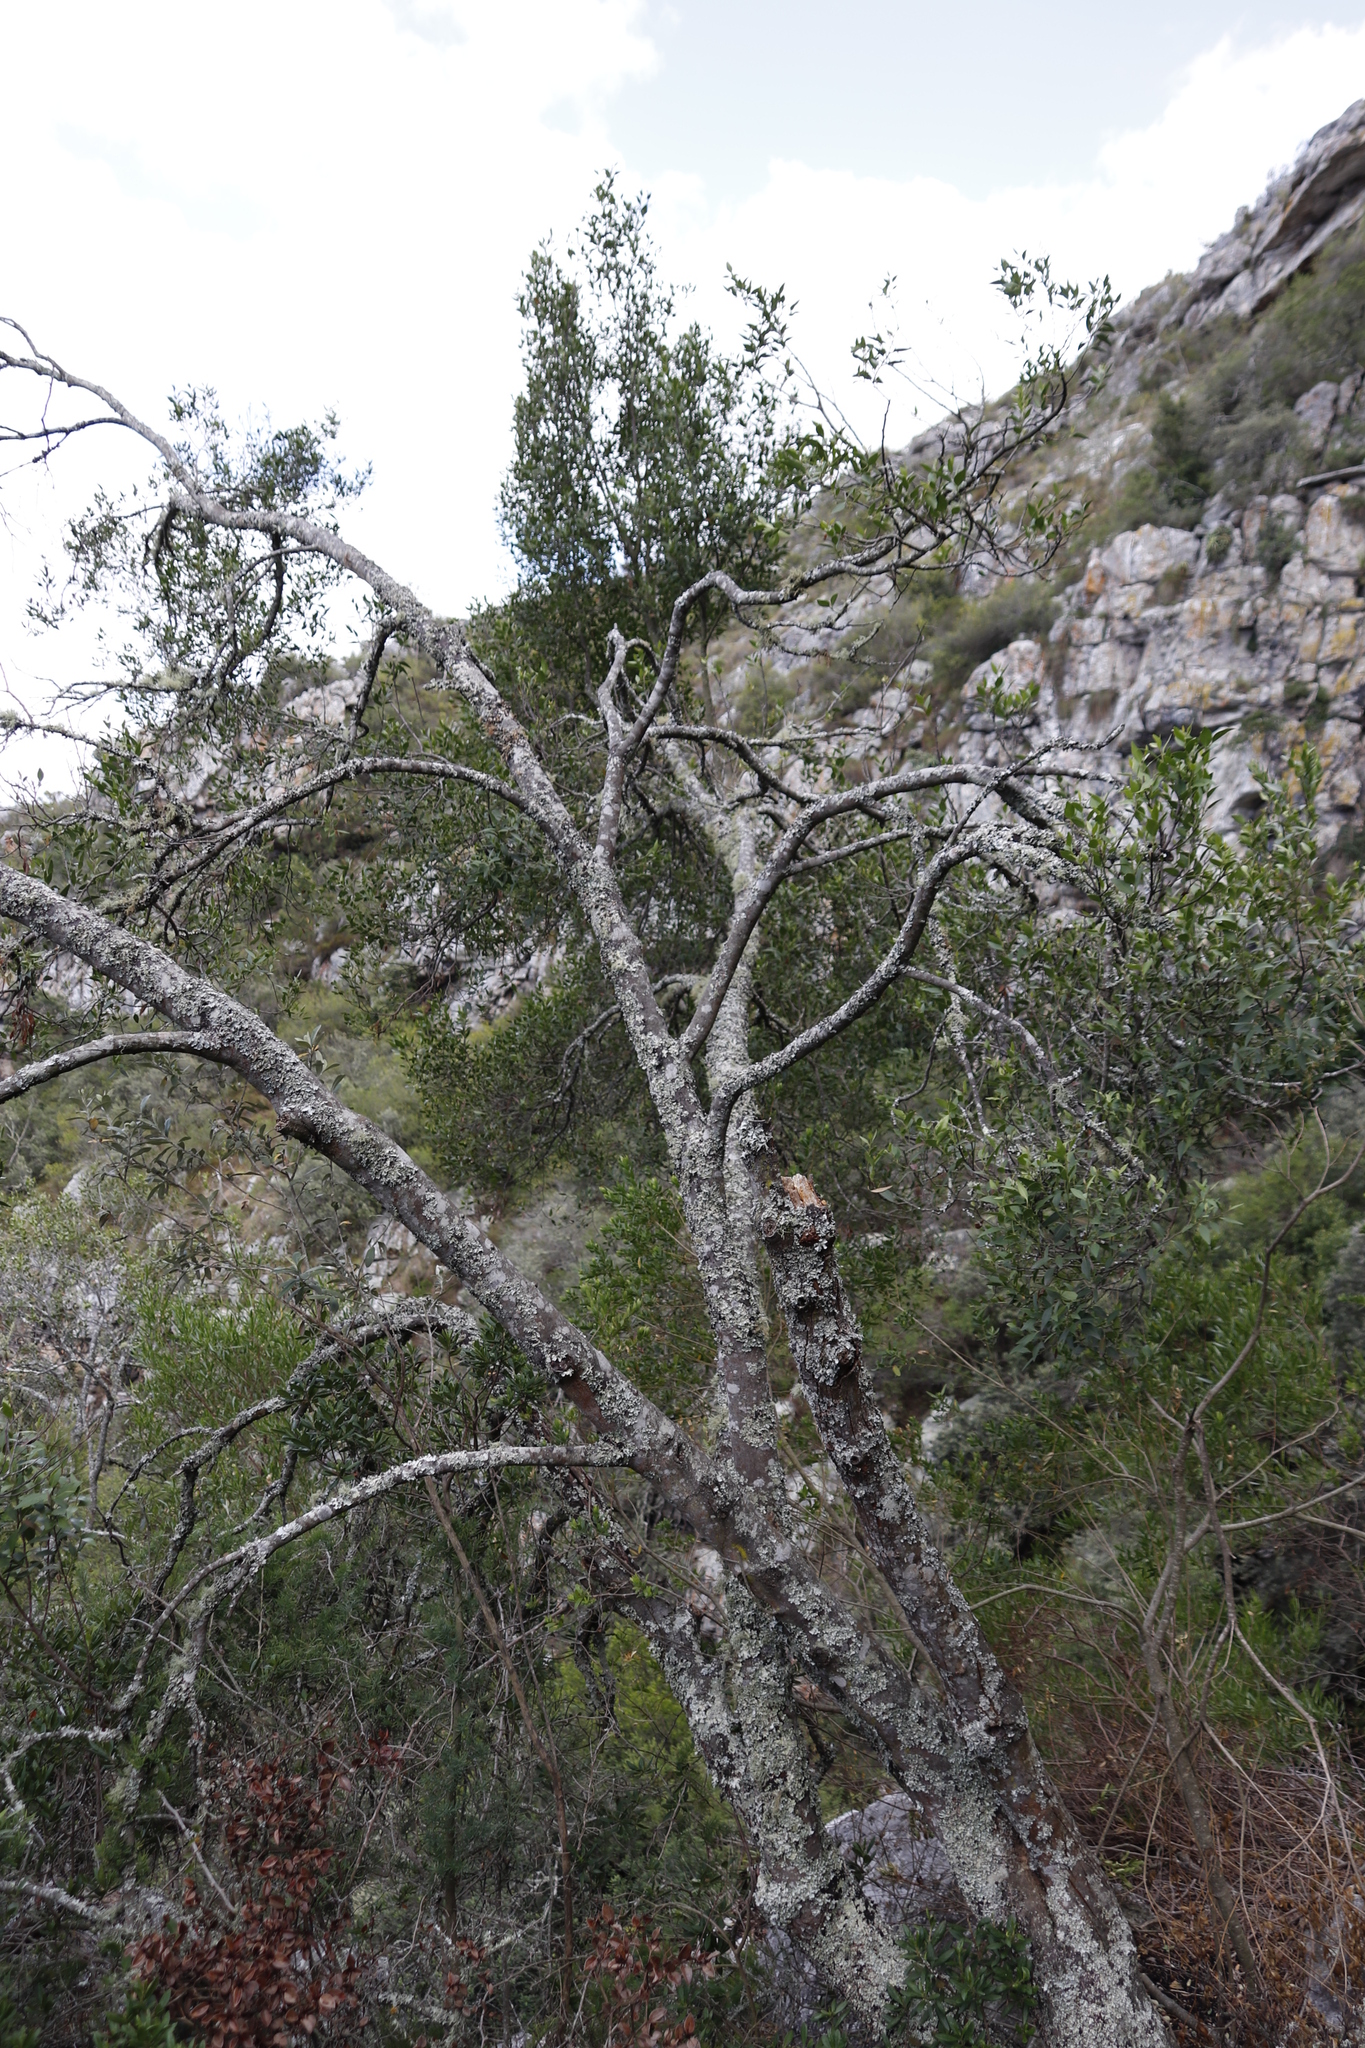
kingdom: Plantae
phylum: Tracheophyta
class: Magnoliopsida
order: Celastrales
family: Celastraceae
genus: Elaeodendron
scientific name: Elaeodendron schinoides
